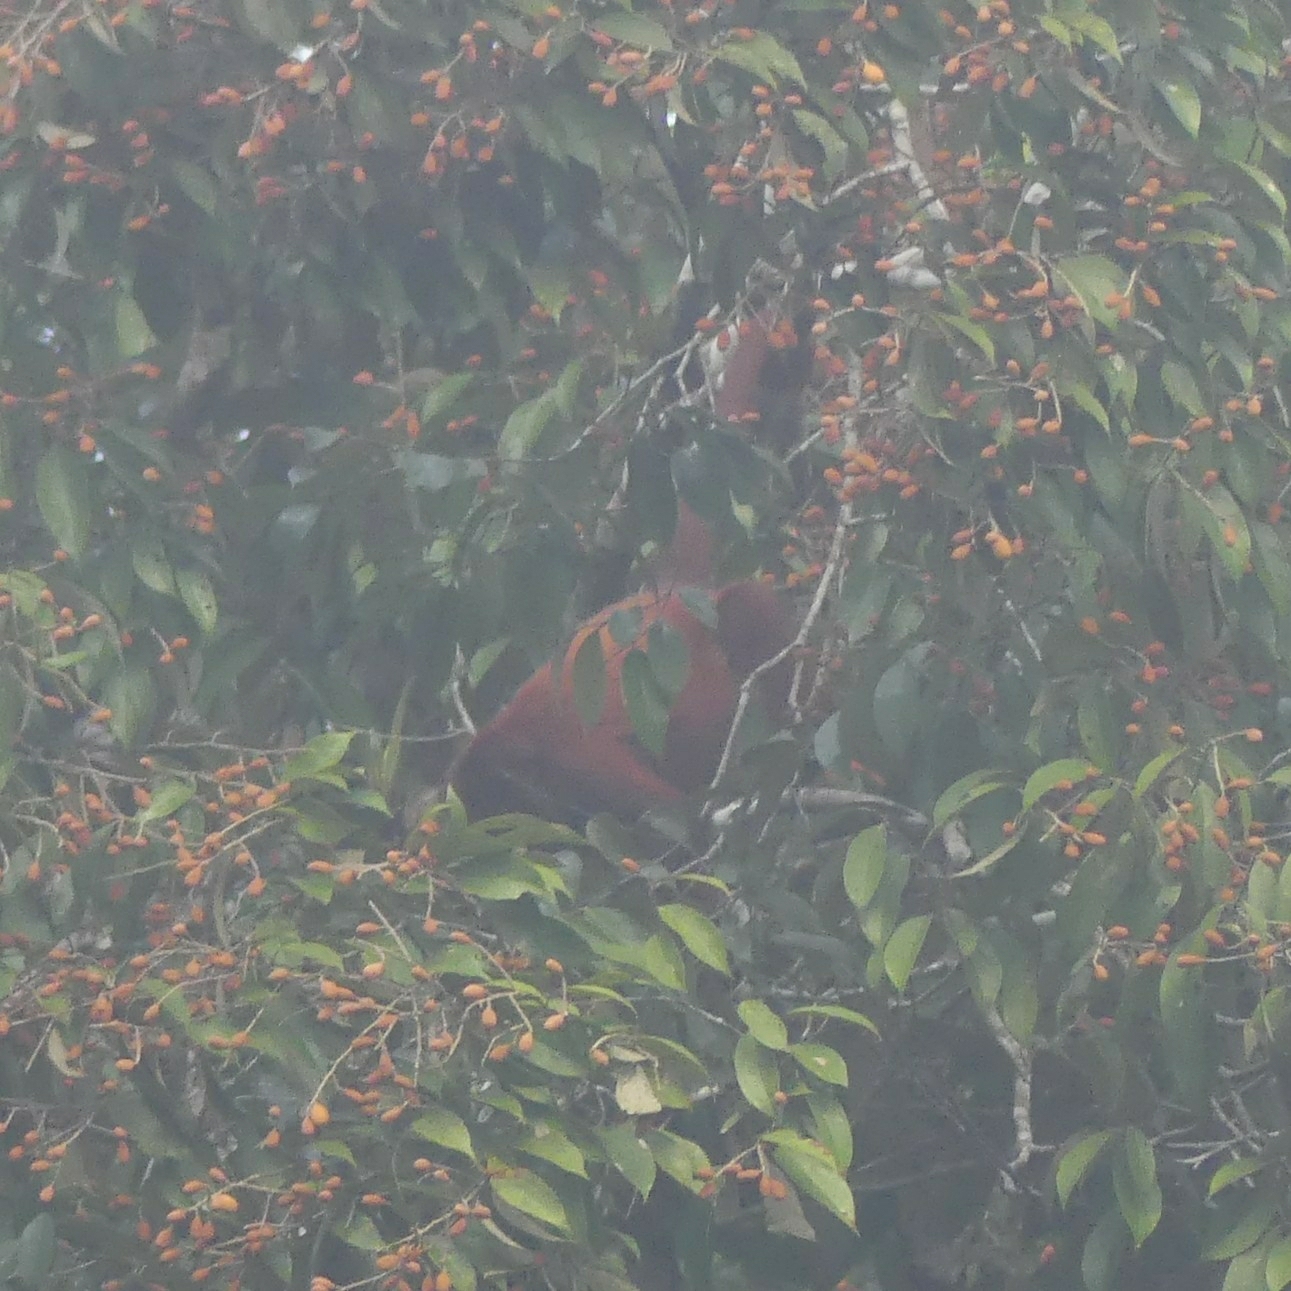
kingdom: Animalia
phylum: Chordata
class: Mammalia
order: Primates
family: Atelidae
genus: Alouatta
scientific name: Alouatta macconnelli
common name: Guyanan red howler
